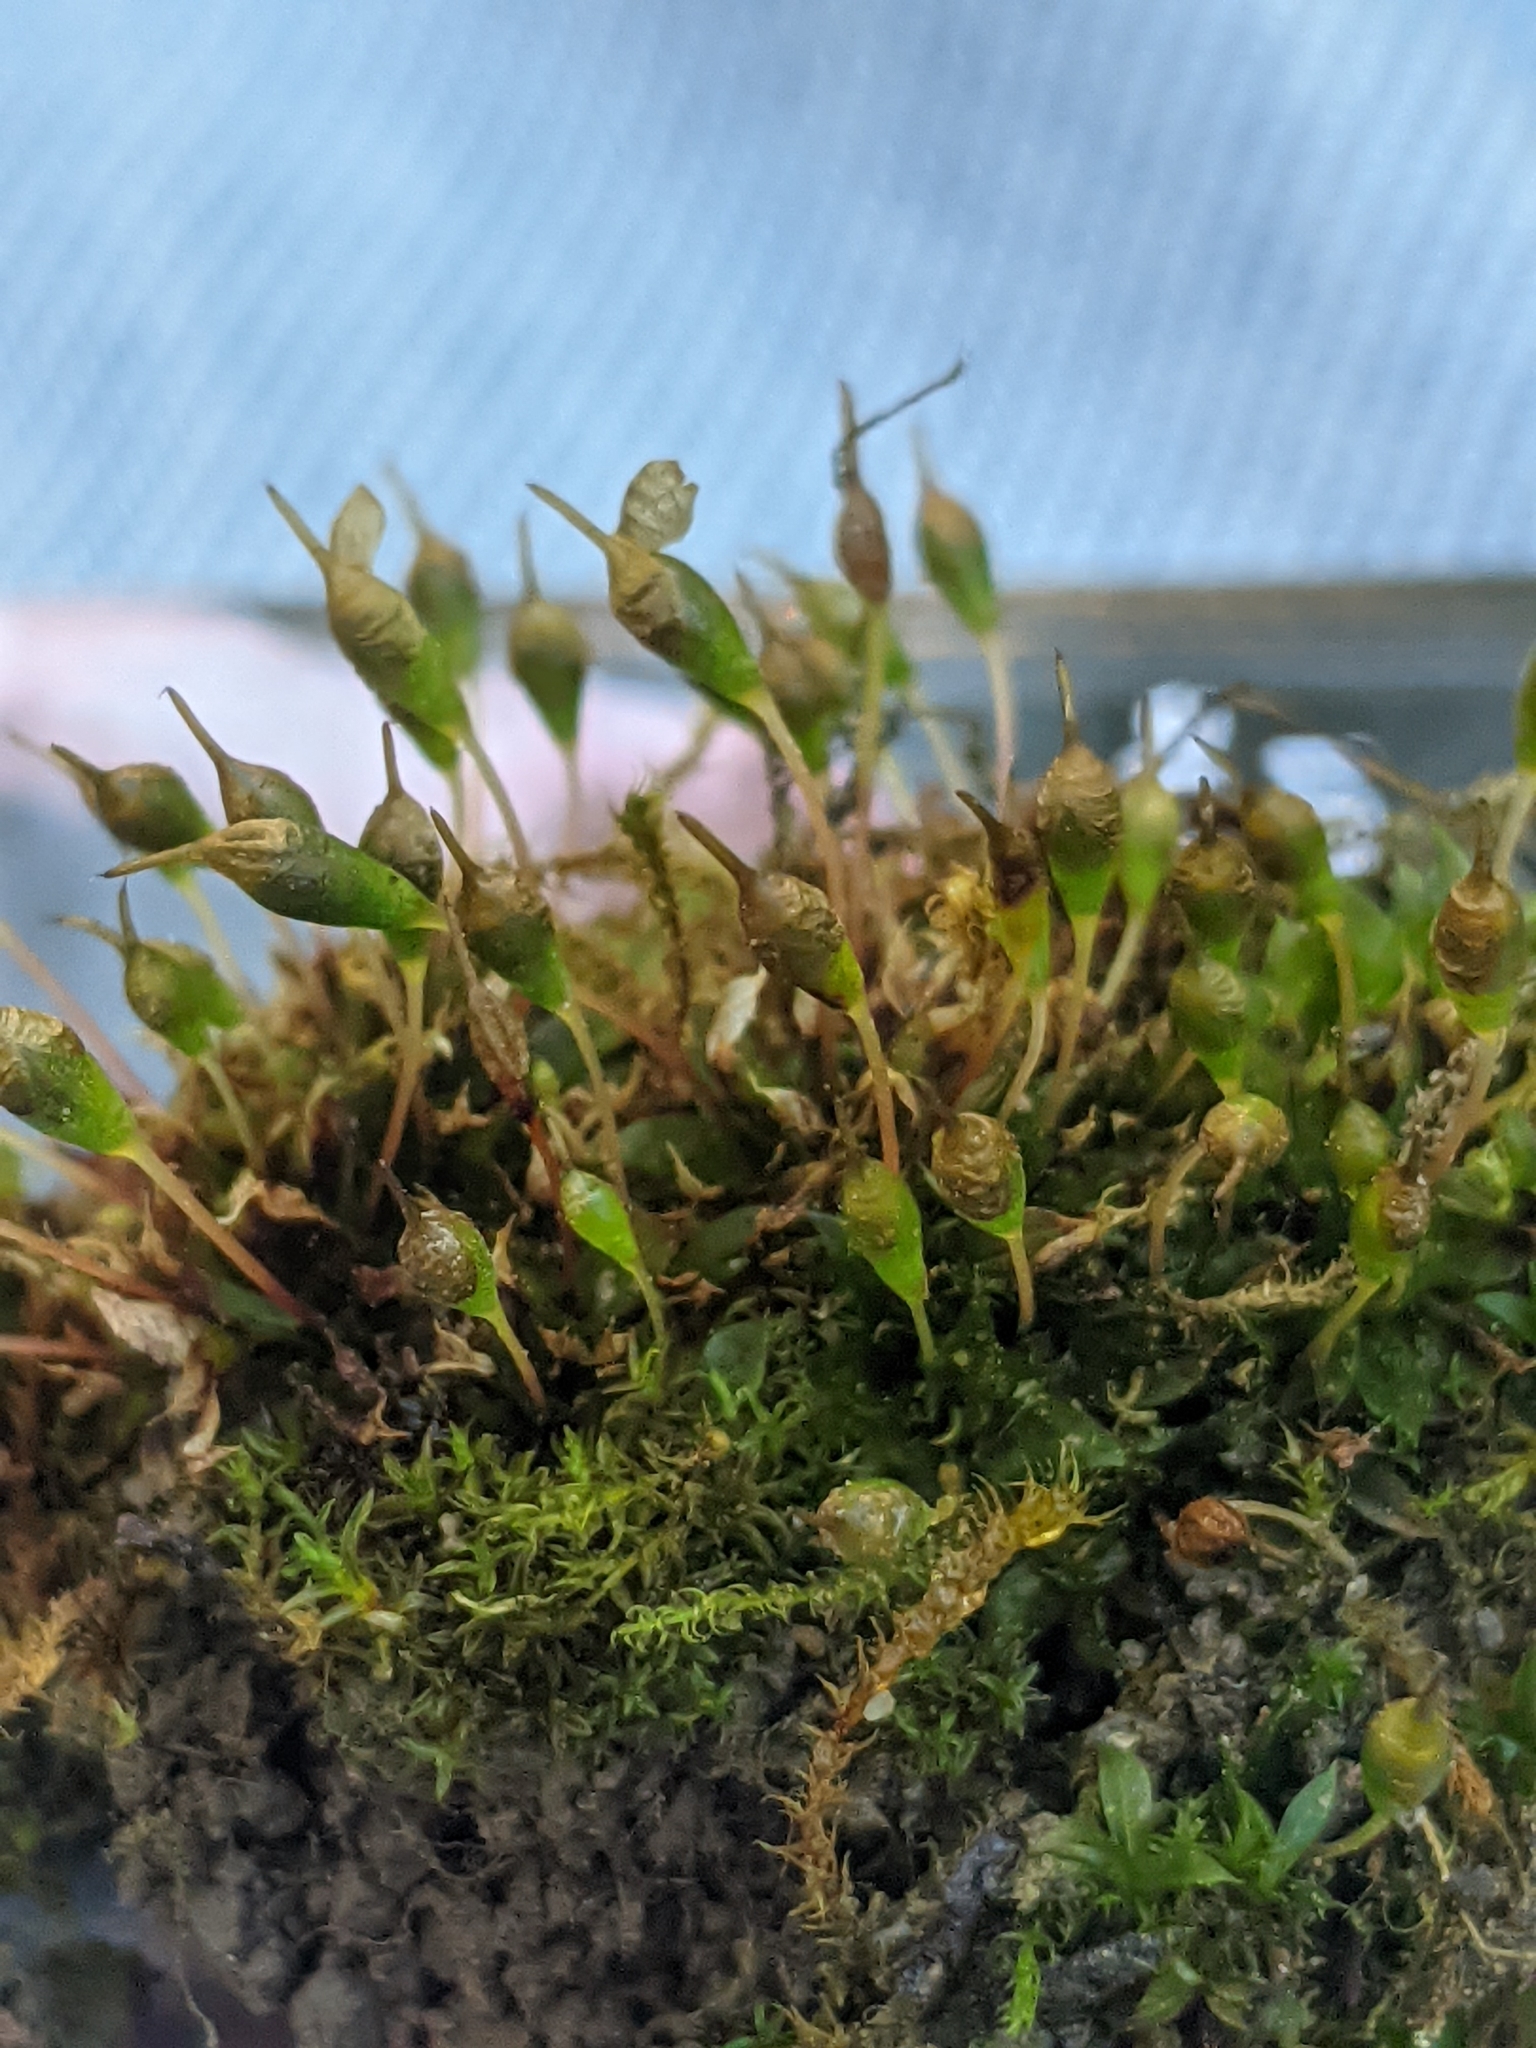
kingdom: Plantae
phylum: Bryophyta
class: Bryopsida
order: Funariales
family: Funariaceae
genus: Physcomitrium
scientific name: Physcomitrium pyriforme
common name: Common bladder-moss
